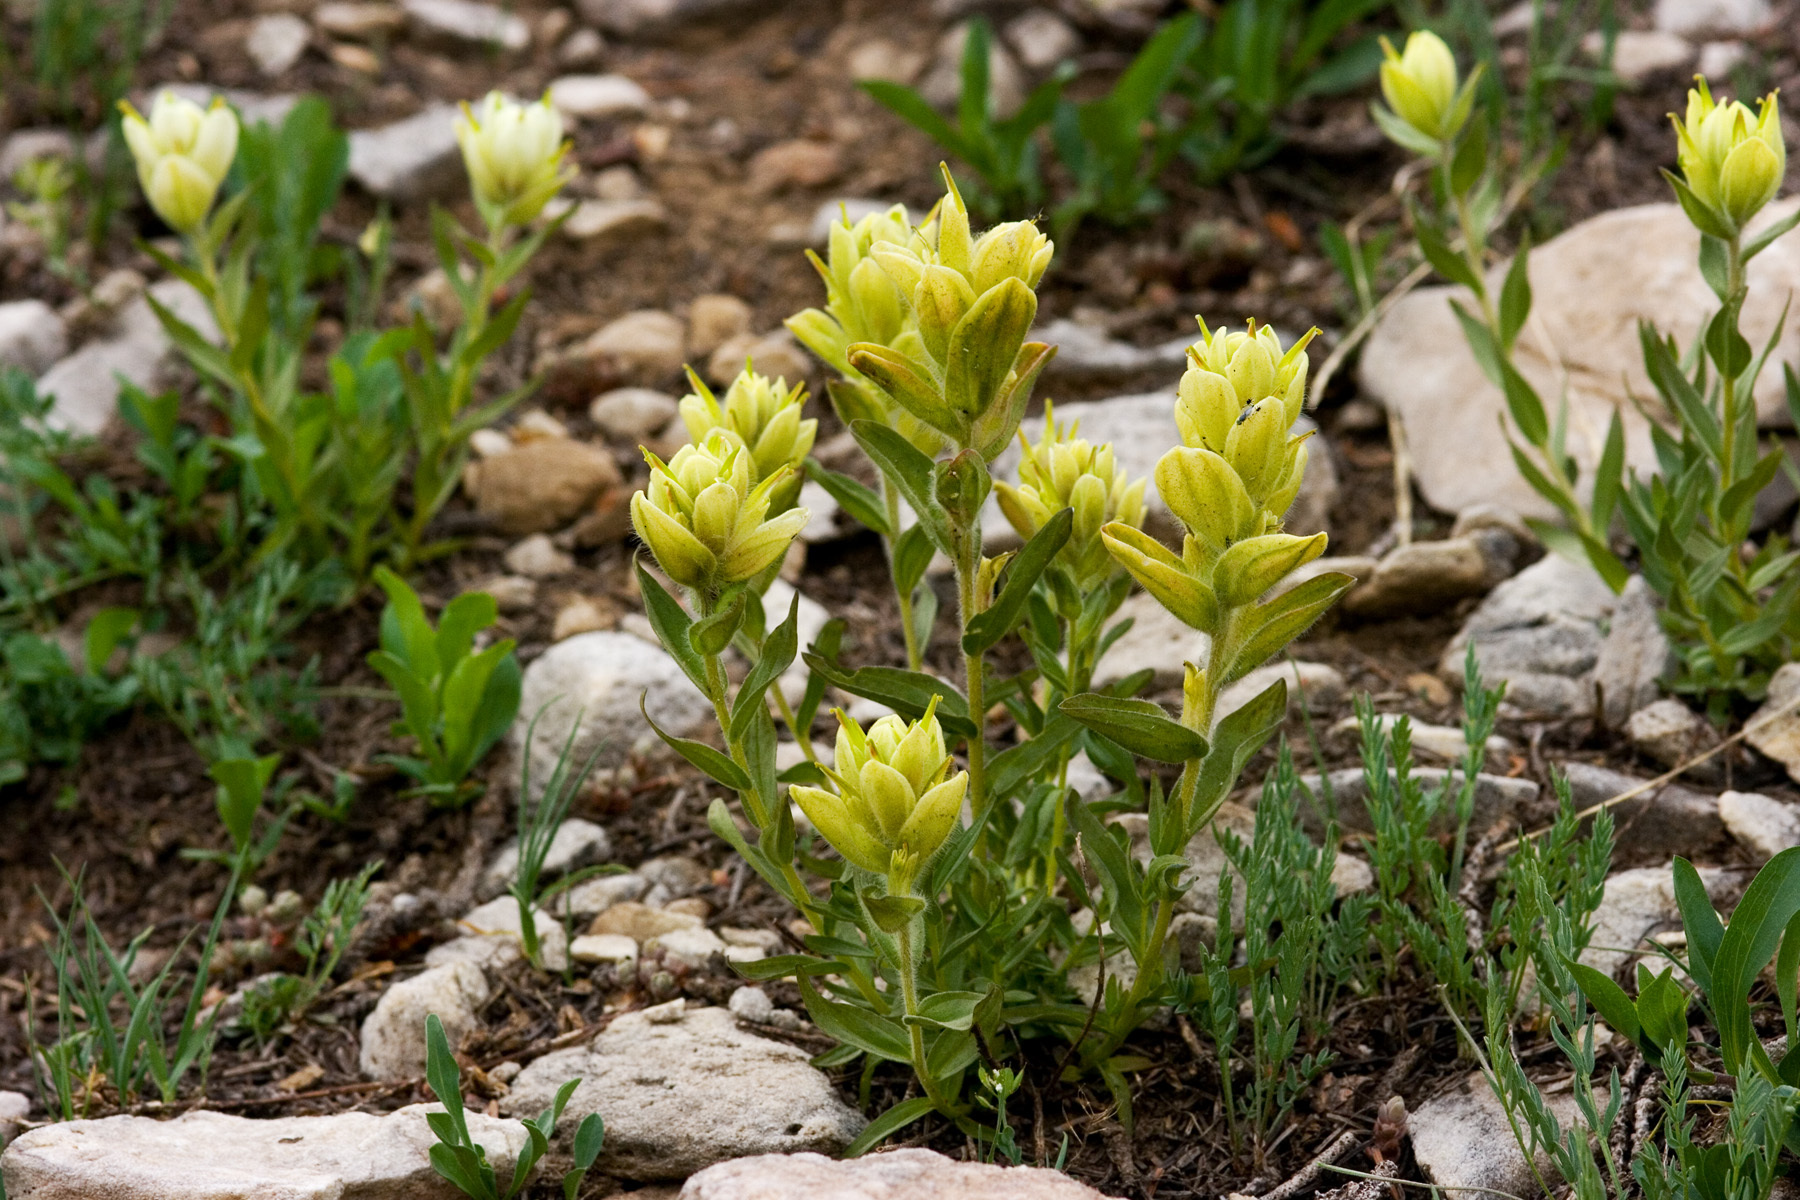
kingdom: Plantae
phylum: Tracheophyta
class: Magnoliopsida
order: Lamiales
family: Orobanchaceae
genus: Castilleja
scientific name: Castilleja septentrionalis
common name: Northeastern paintbrush
